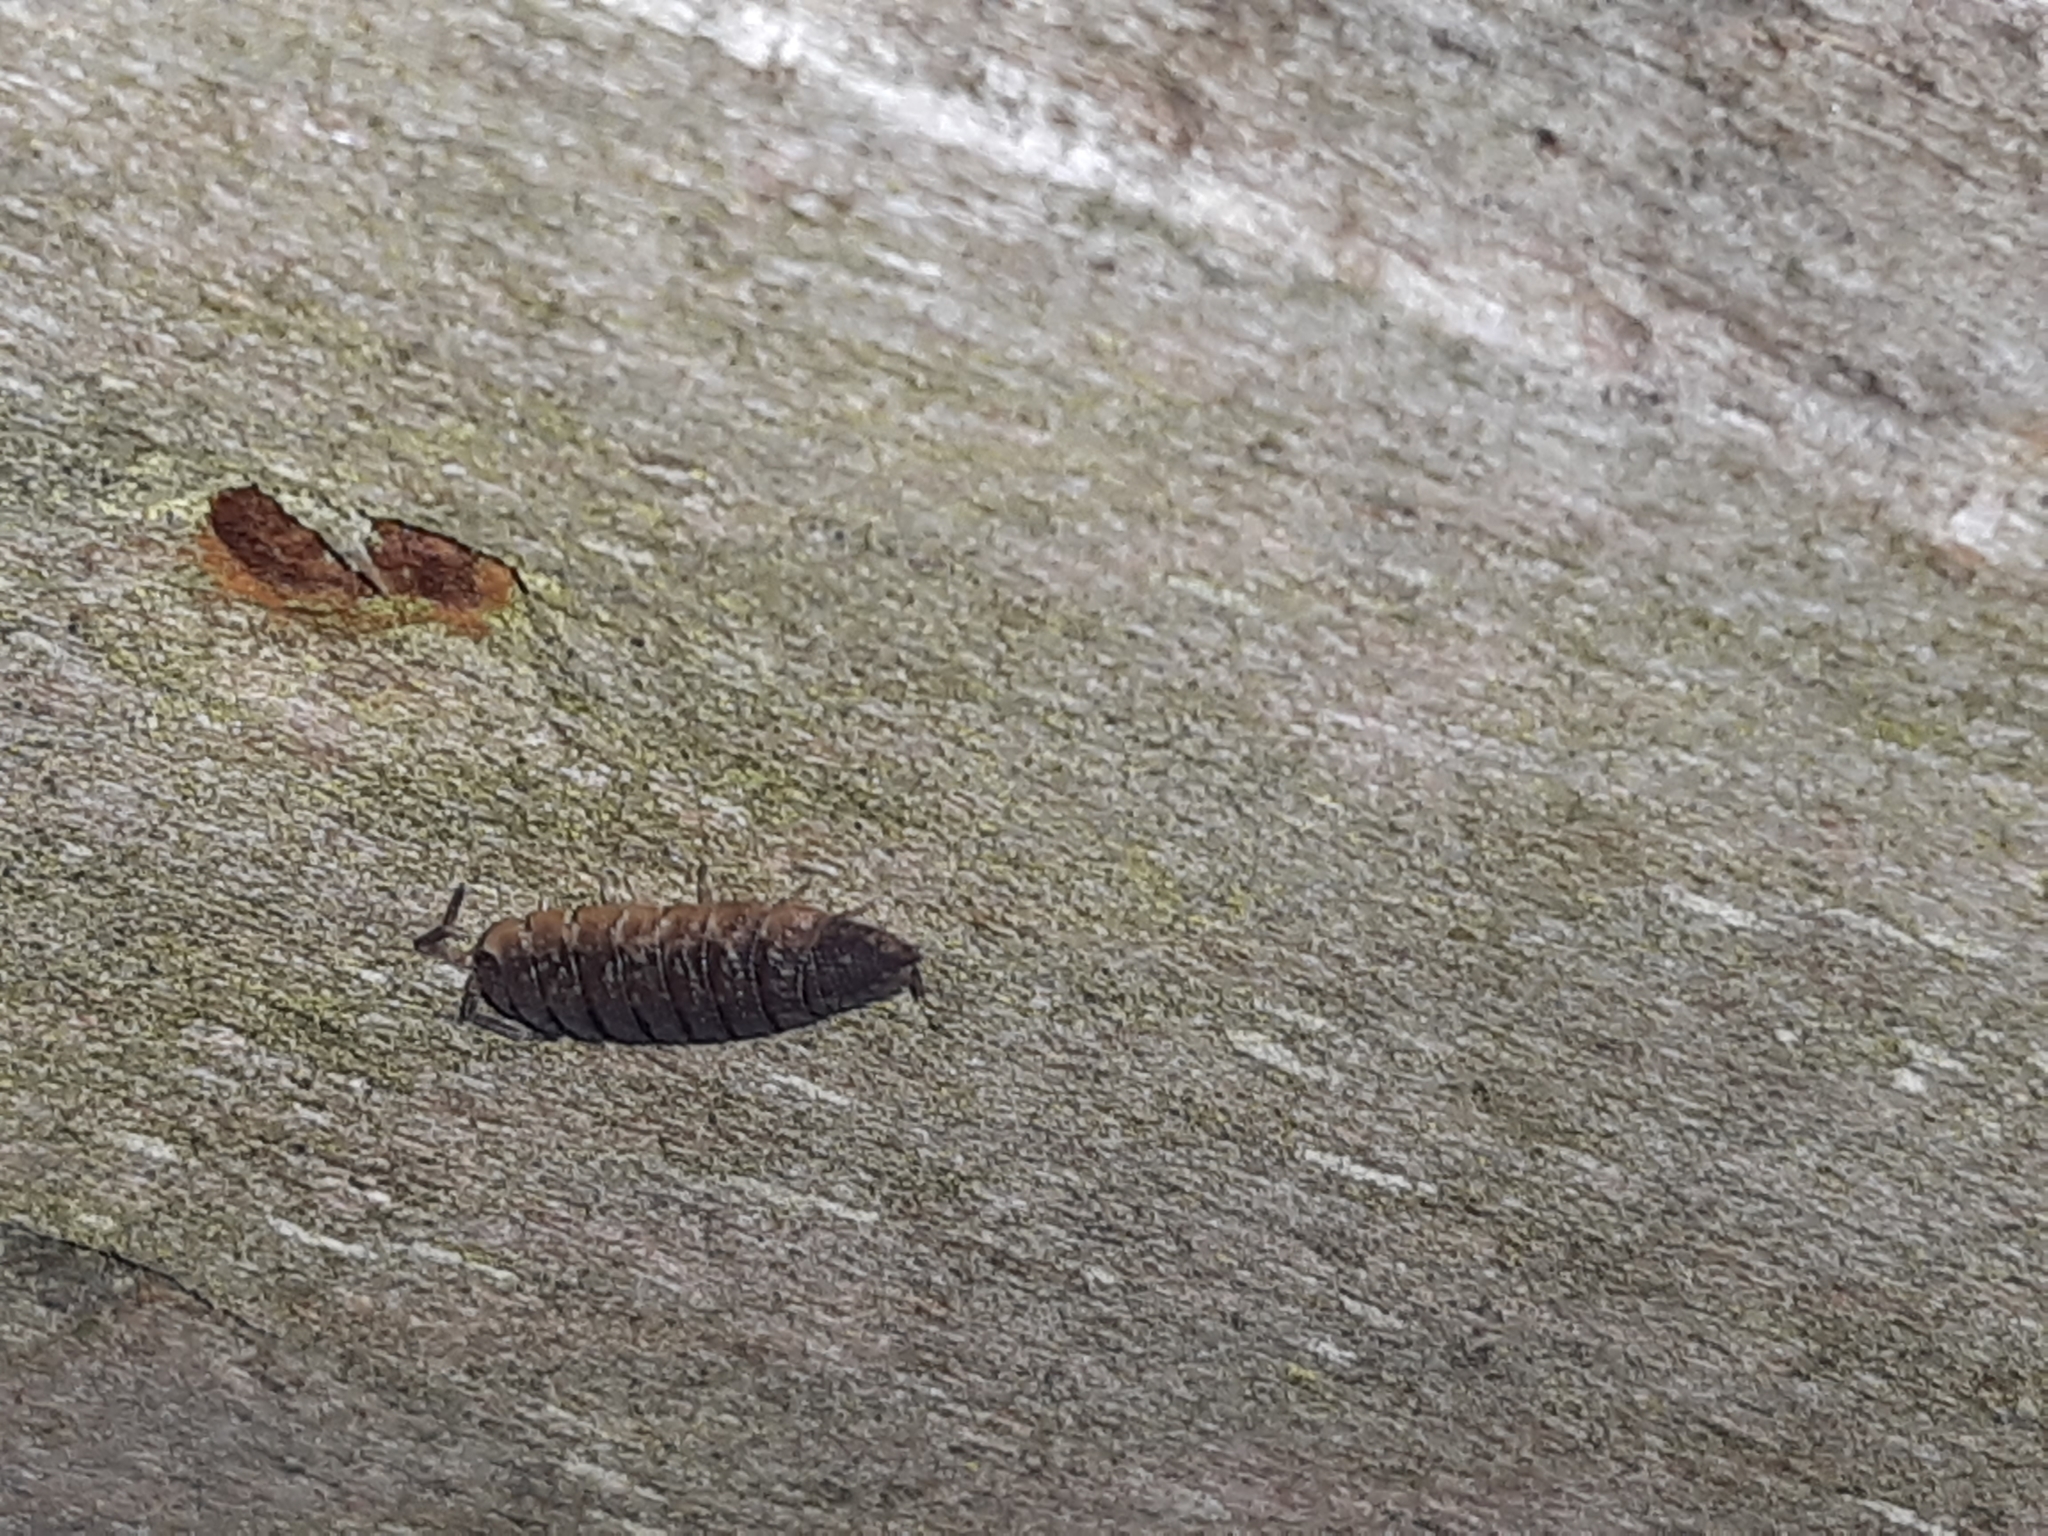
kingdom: Animalia
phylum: Arthropoda
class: Malacostraca
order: Isopoda
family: Porcellionidae
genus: Porcellio
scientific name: Porcellio scaber
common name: Common rough woodlouse
